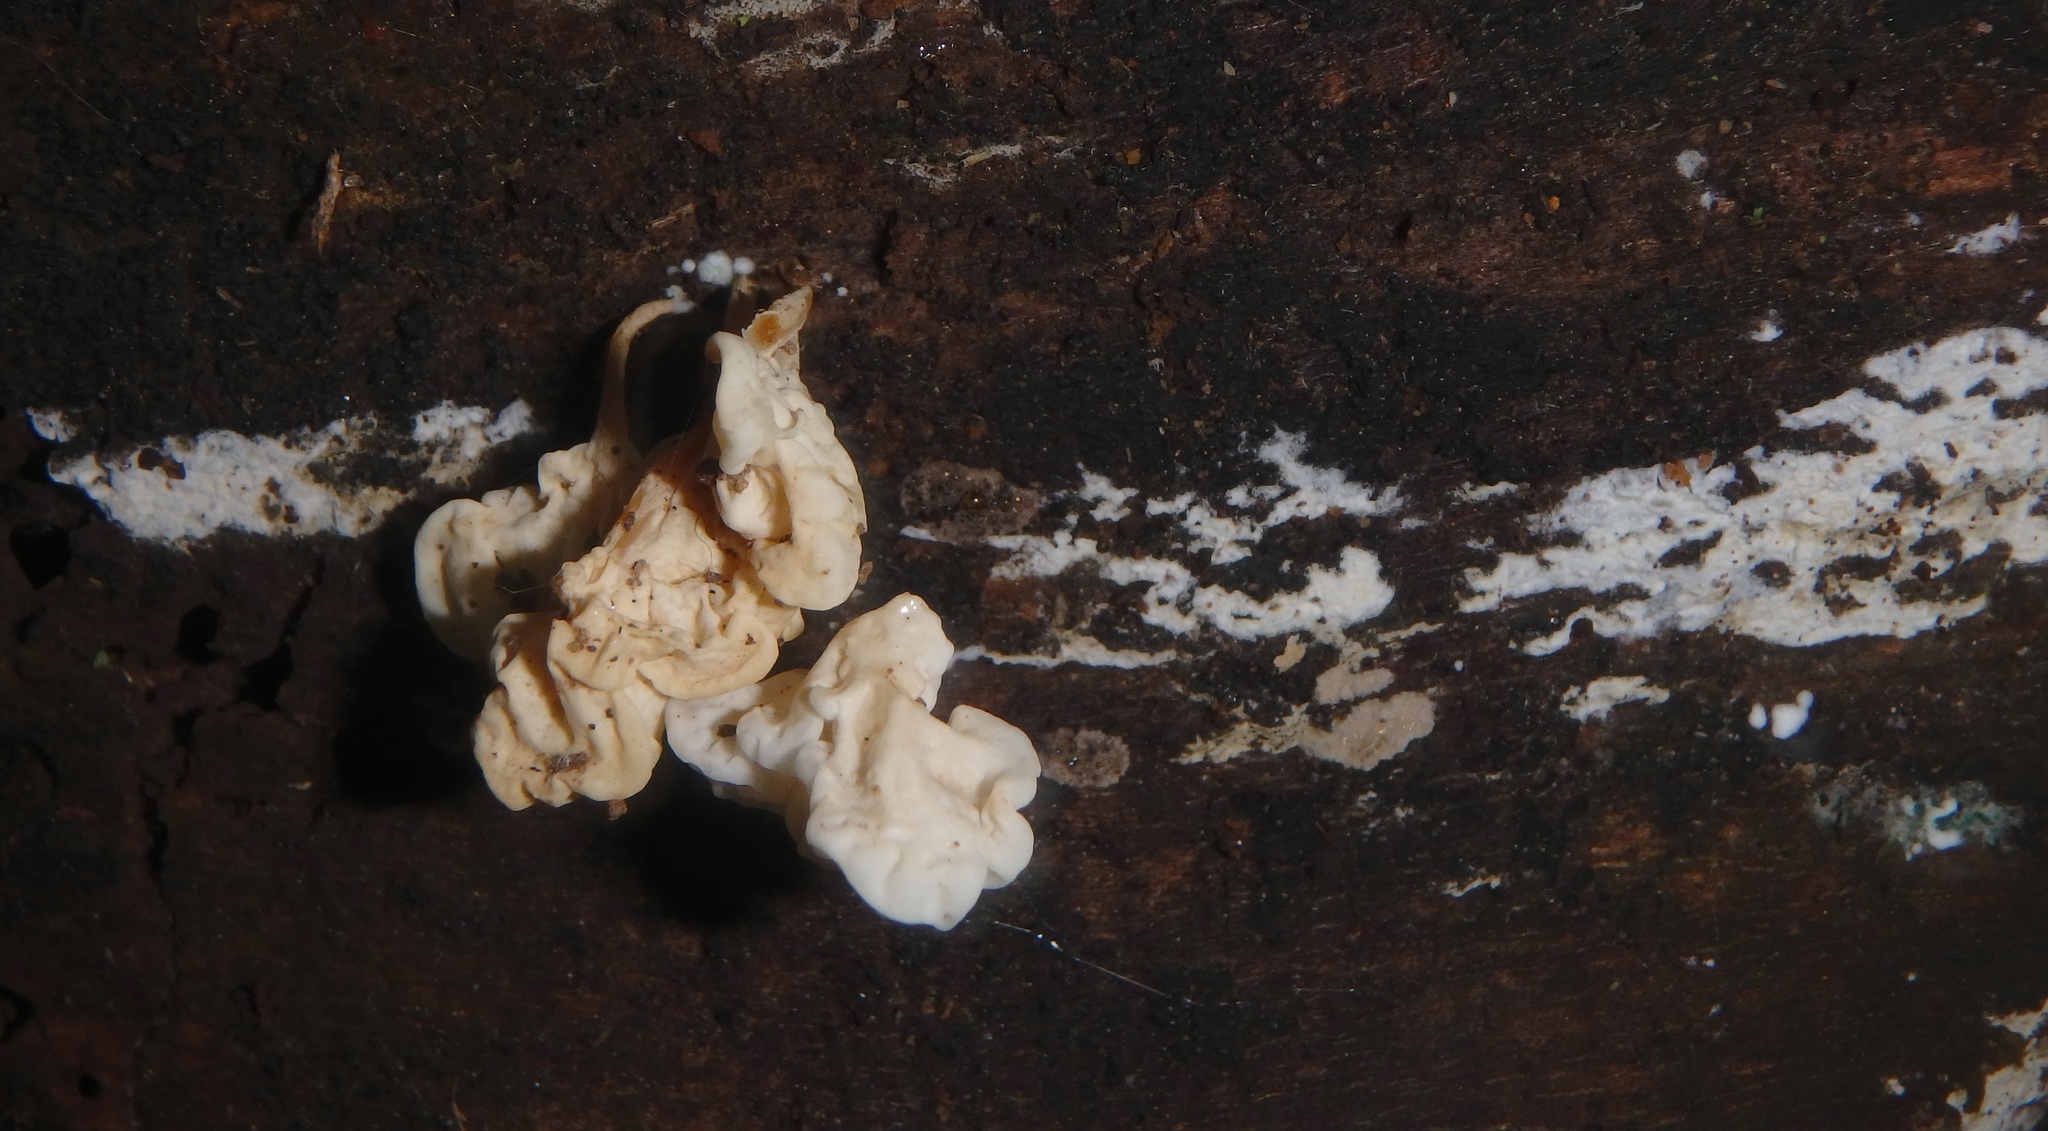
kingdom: Fungi
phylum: Basidiomycota
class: Agaricomycetes
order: Auriculariales
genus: Ductifera
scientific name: Ductifera pululahuana
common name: White jelly fungus
